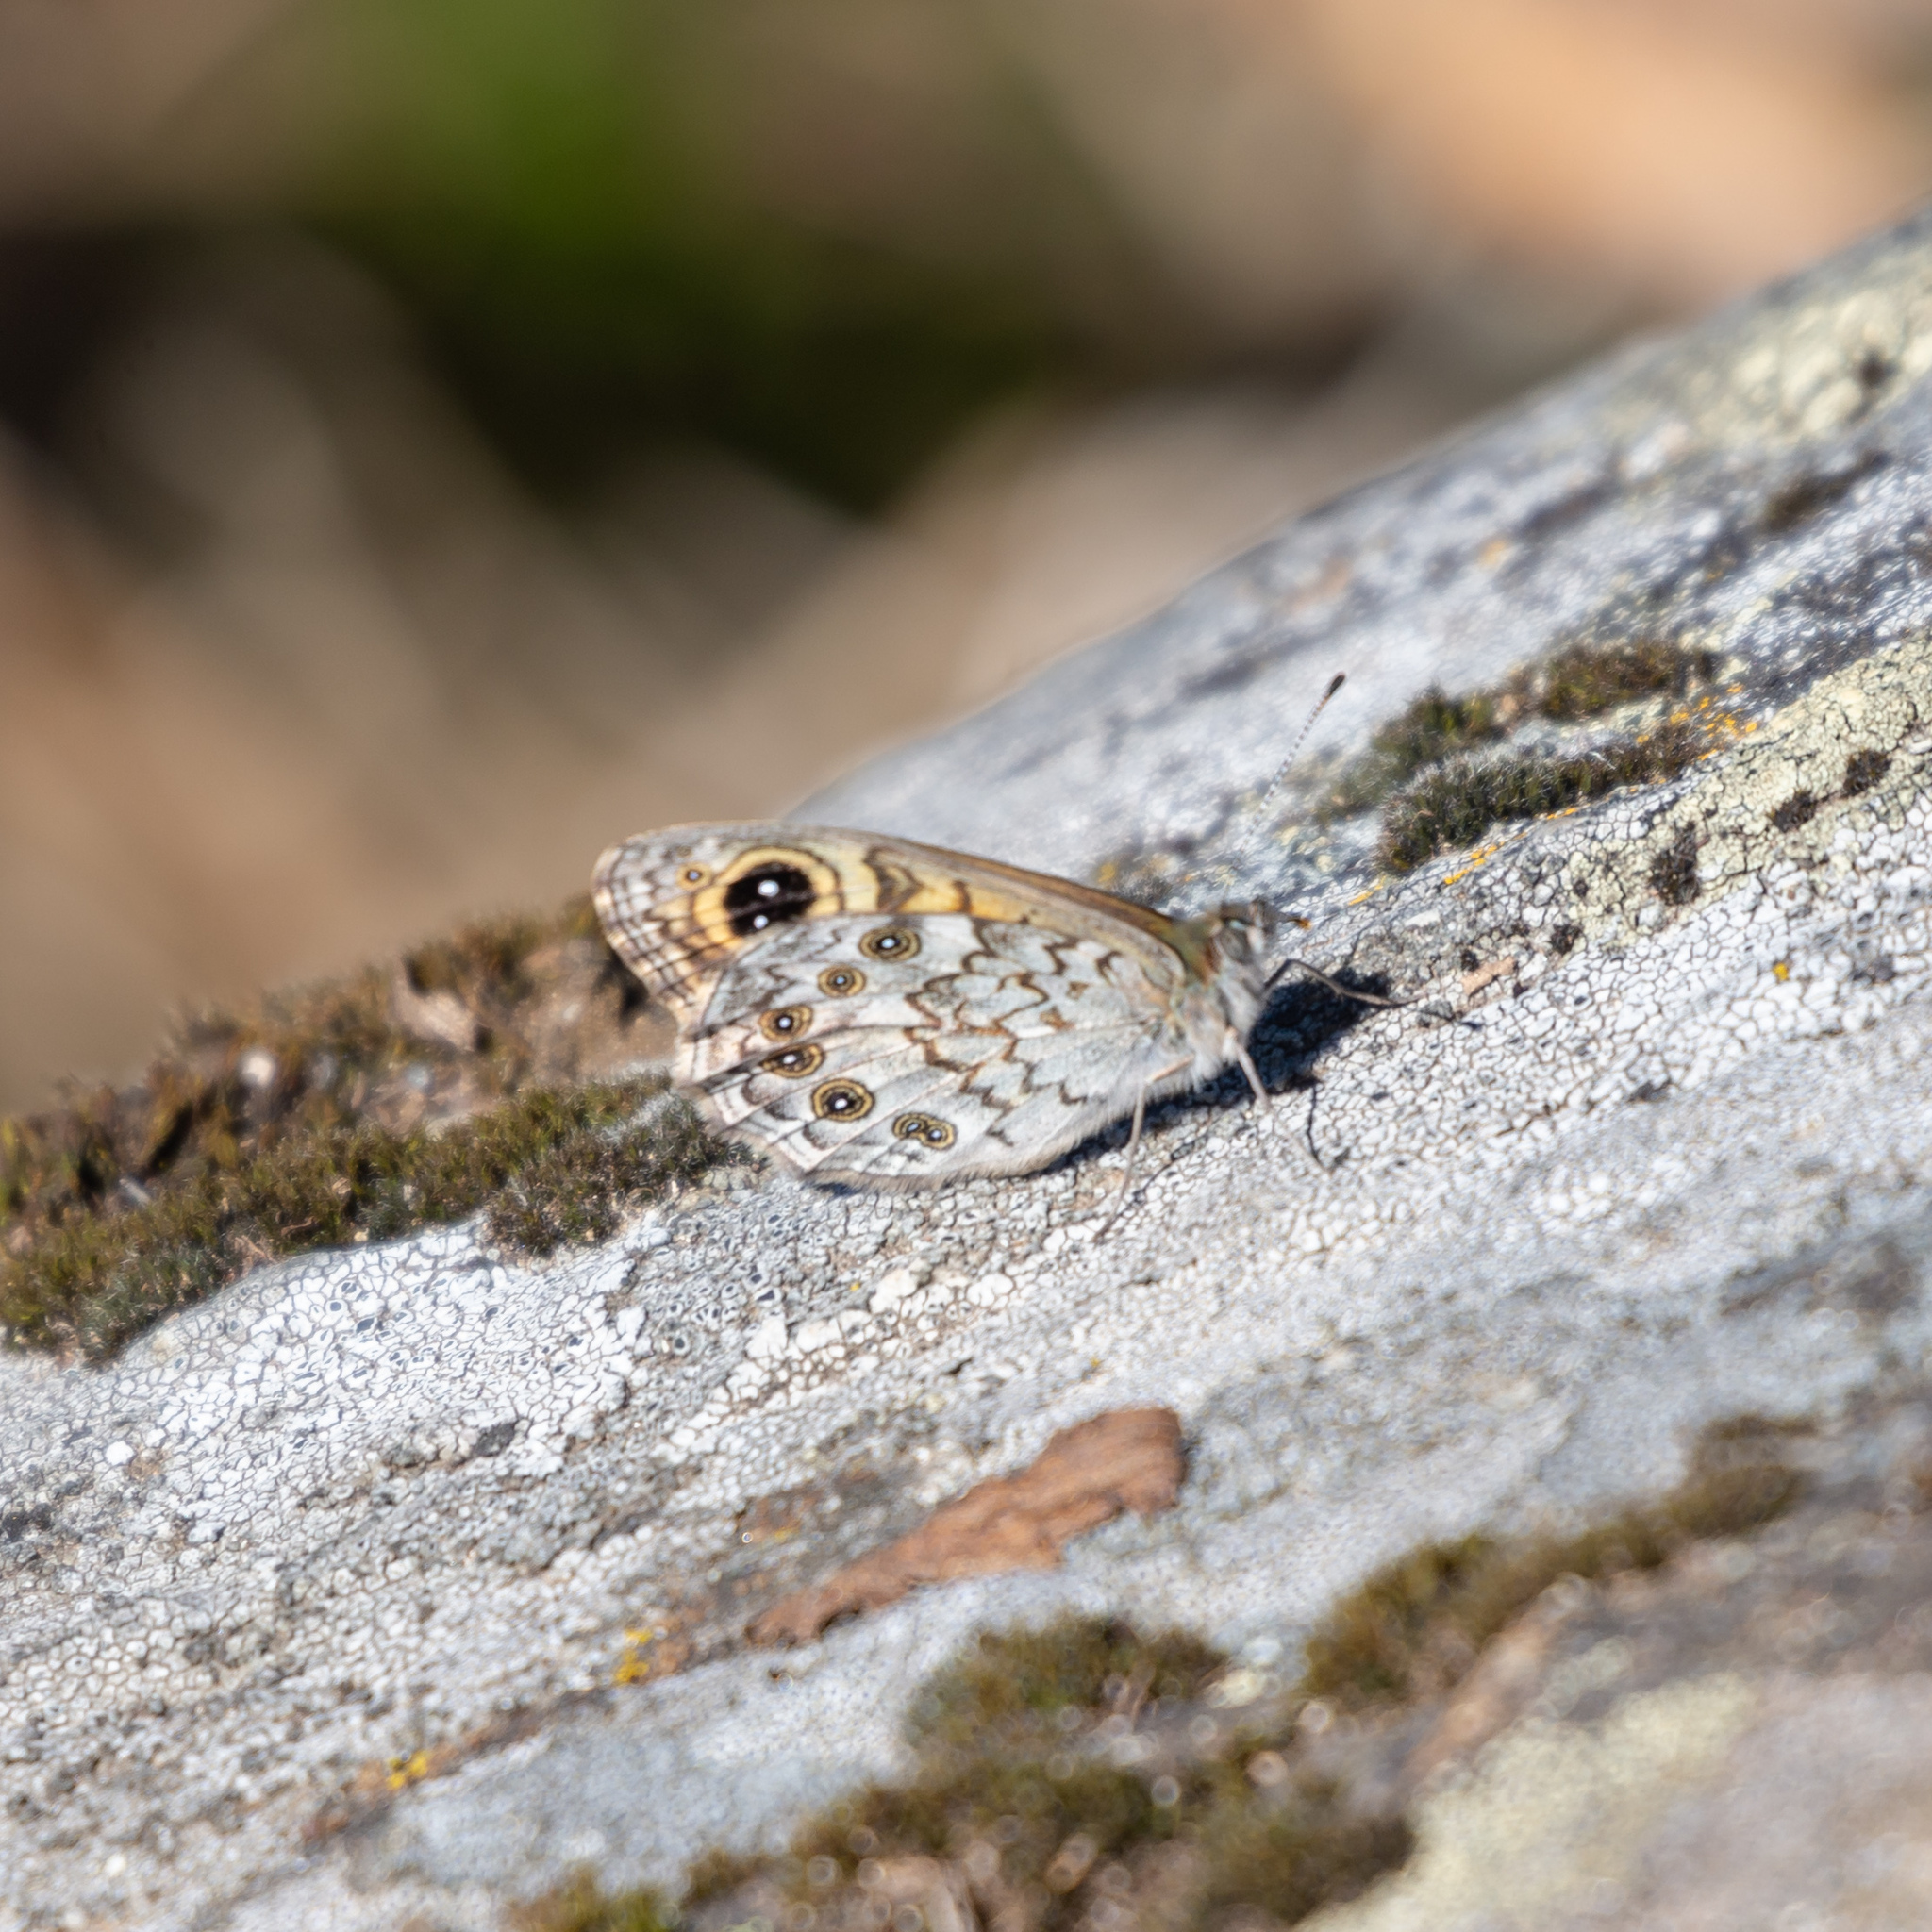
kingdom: Animalia
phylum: Arthropoda
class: Insecta
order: Lepidoptera
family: Nymphalidae
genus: Pararge
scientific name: Pararge Lasiommata maera
